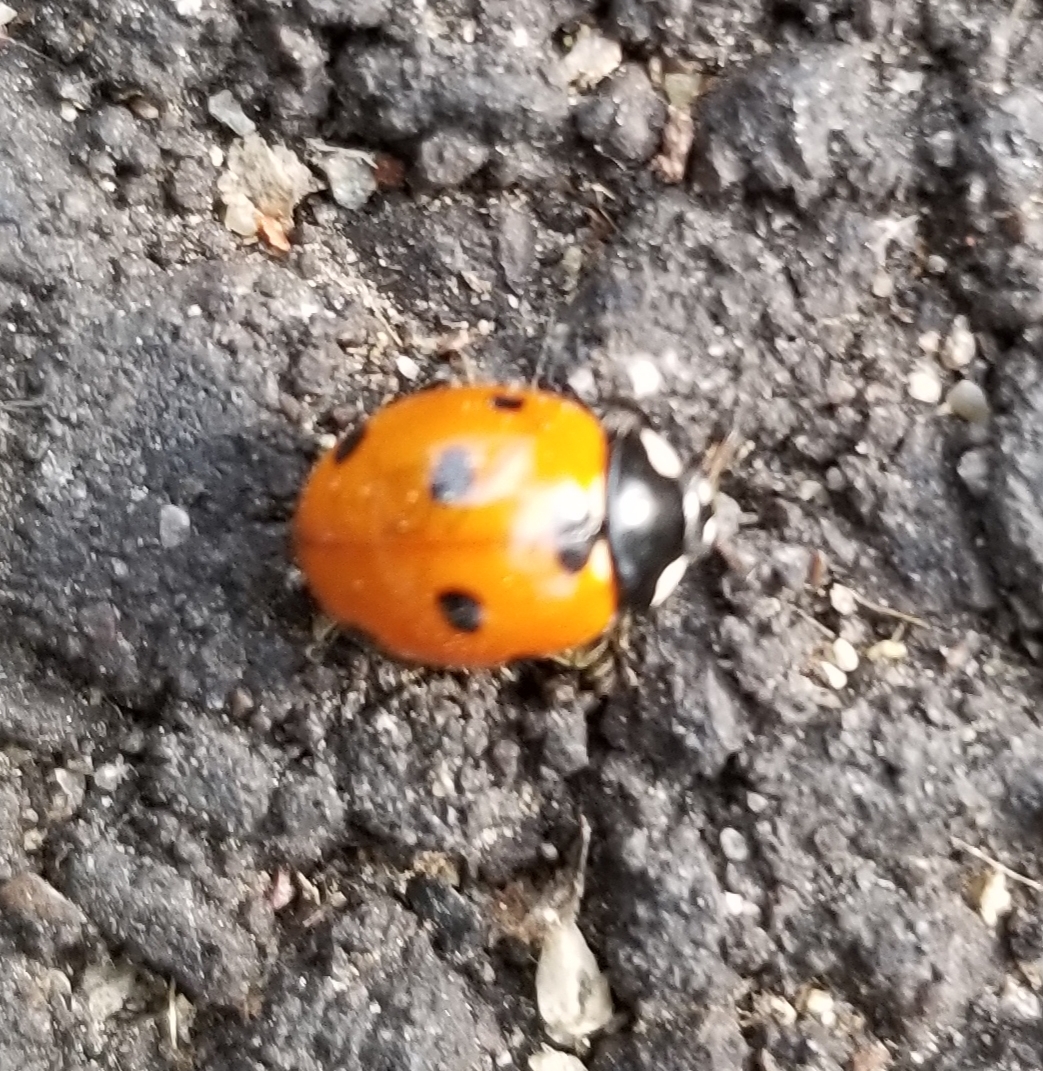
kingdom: Animalia
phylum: Arthropoda
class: Insecta
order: Coleoptera
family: Coccinellidae
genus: Coccinella
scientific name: Coccinella septempunctata
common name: Sevenspotted lady beetle
